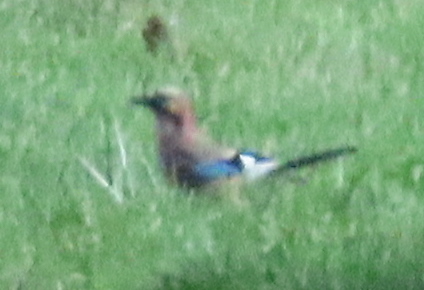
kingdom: Animalia
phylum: Chordata
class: Aves
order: Passeriformes
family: Corvidae
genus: Garrulus
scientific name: Garrulus glandarius
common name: Eurasian jay
